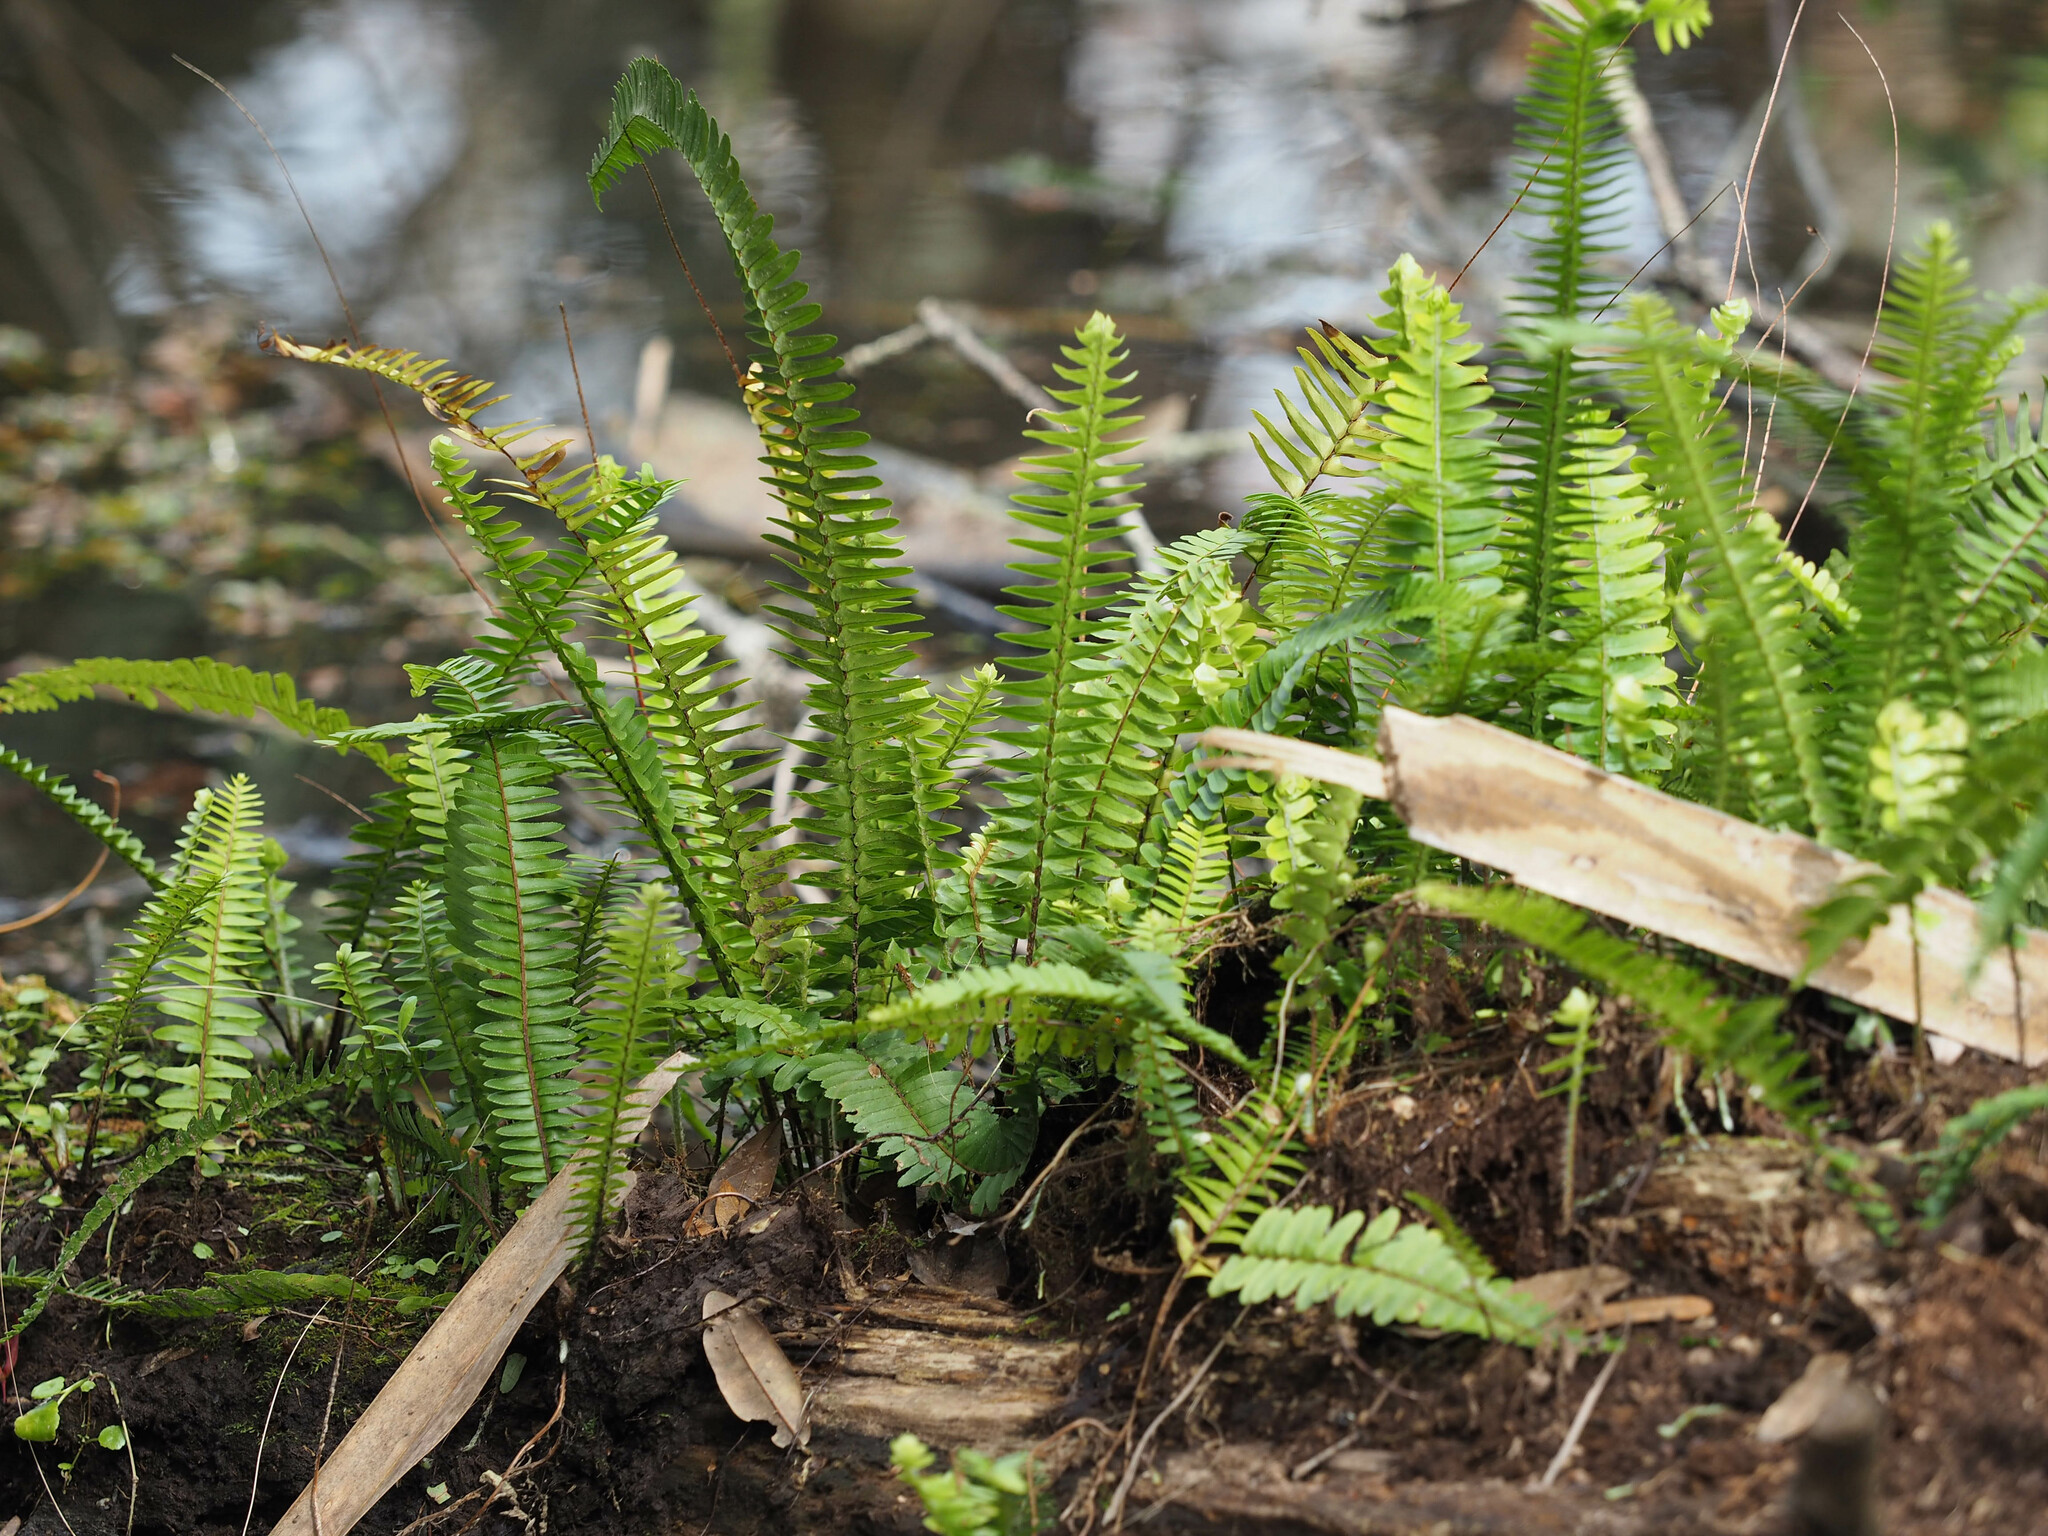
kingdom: Plantae
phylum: Tracheophyta
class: Polypodiopsida
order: Polypodiales
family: Nephrolepidaceae
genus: Nephrolepis
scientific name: Nephrolepis cordifolia
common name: Narrow swordfern
